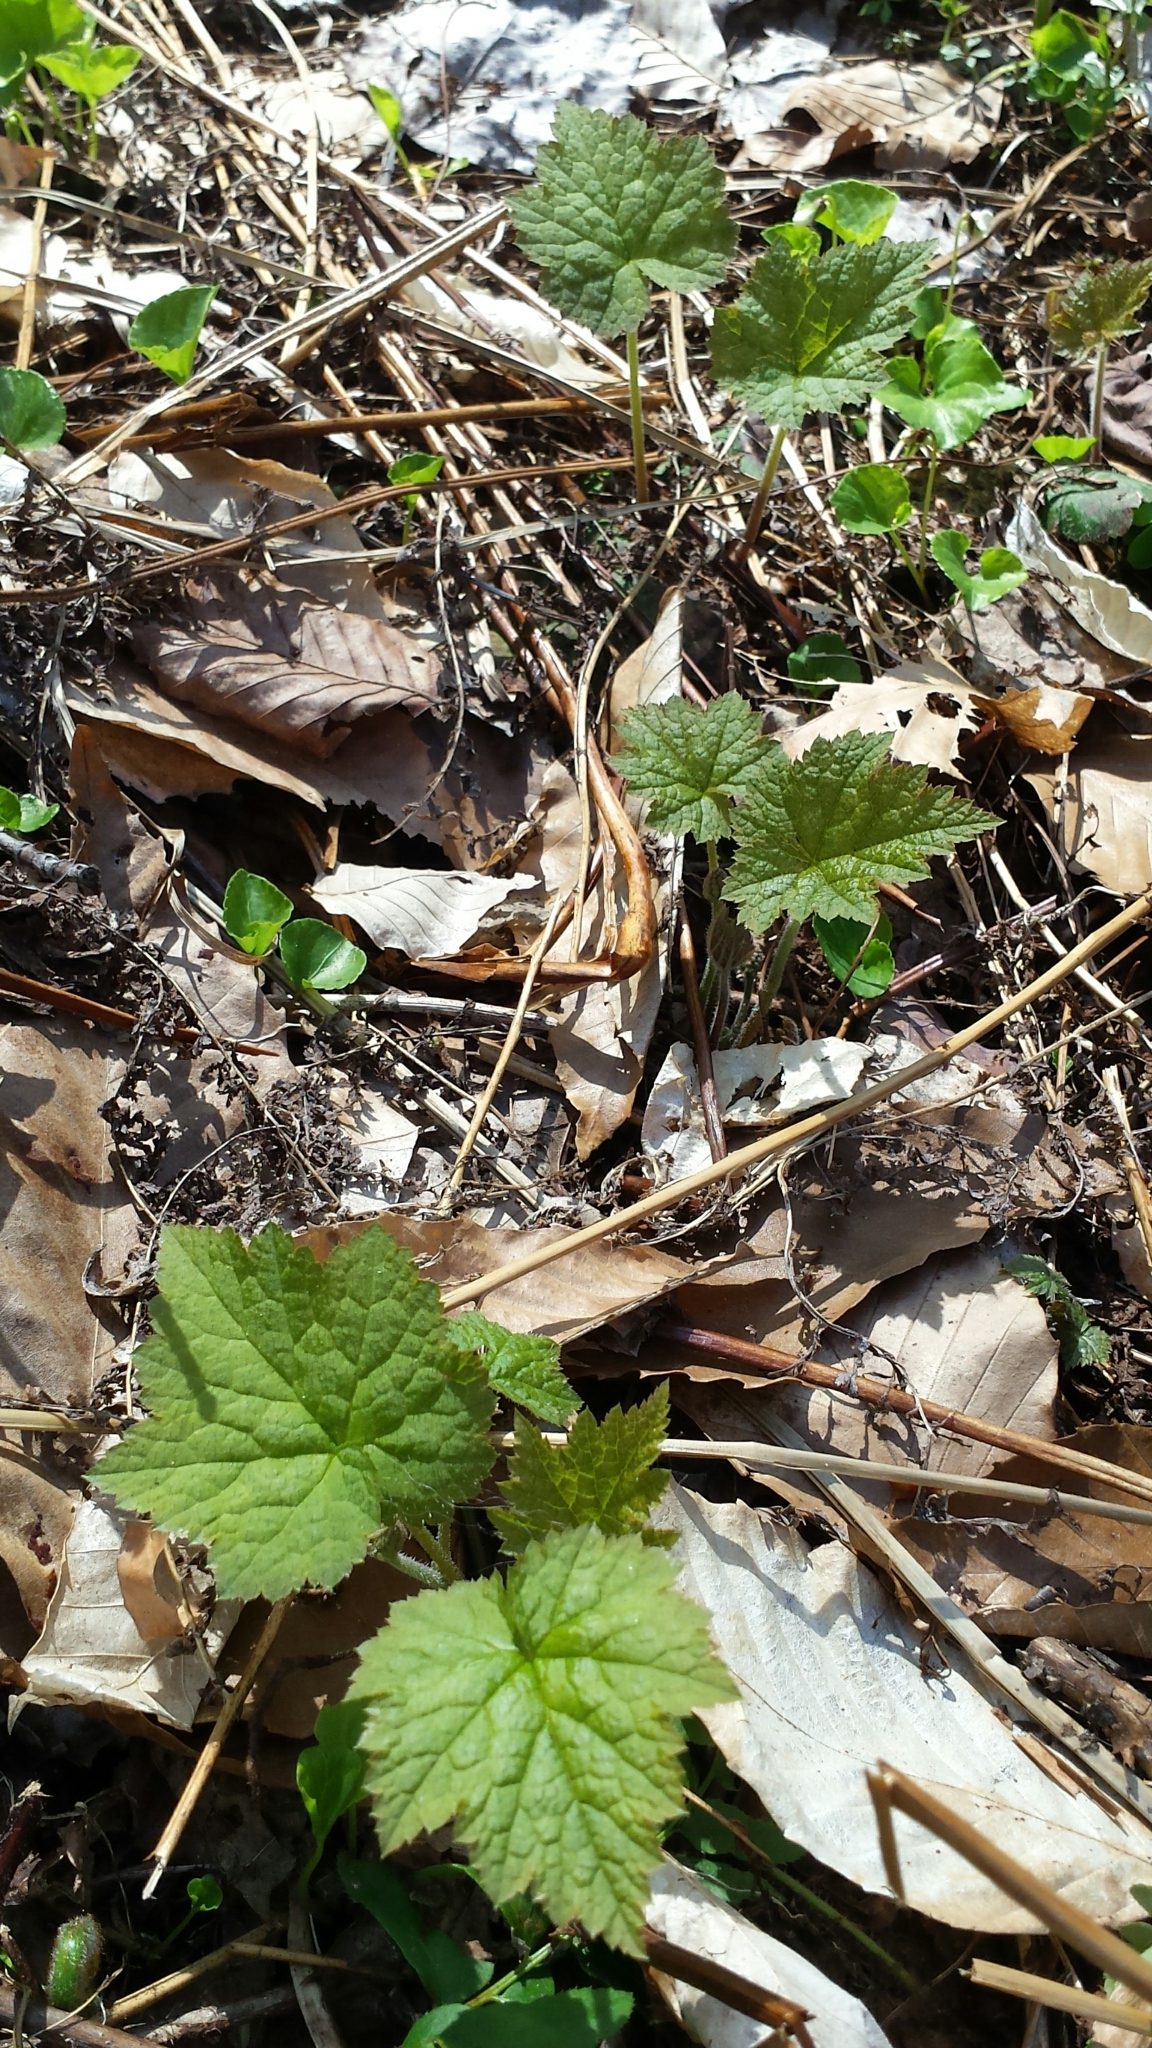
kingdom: Plantae
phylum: Tracheophyta
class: Magnoliopsida
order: Saxifragales
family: Saxifragaceae
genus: Tiarella
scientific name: Tiarella stolonifera
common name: Stoloniferous foamflower
